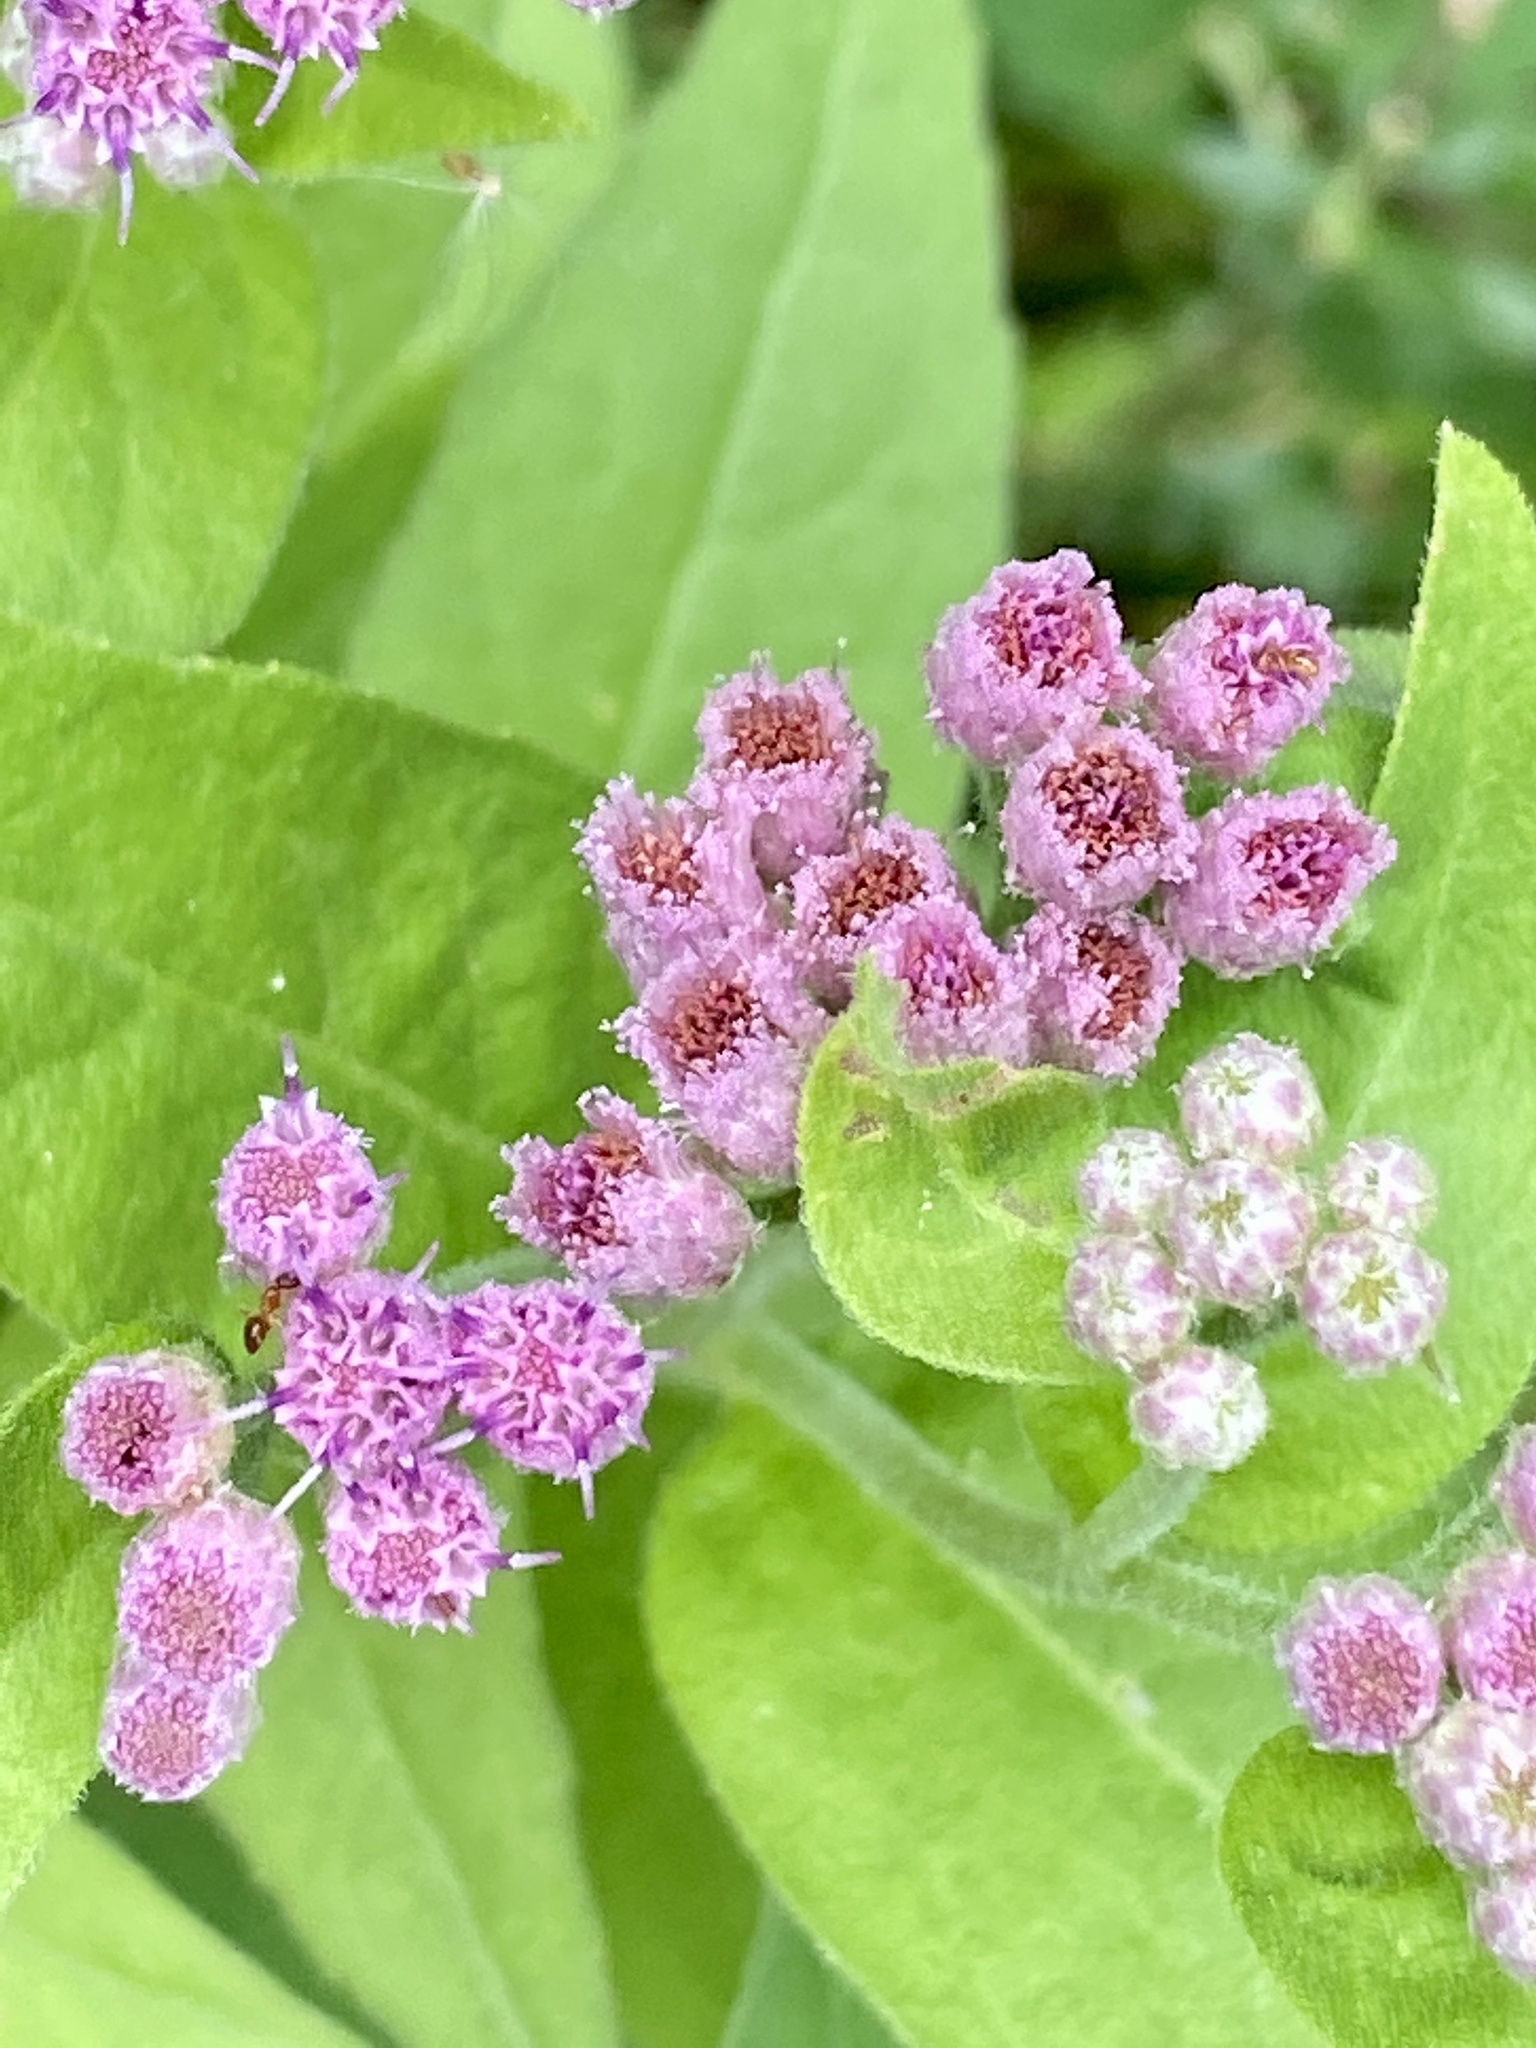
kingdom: Plantae
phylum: Tracheophyta
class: Magnoliopsida
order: Asterales
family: Asteraceae
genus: Pluchea
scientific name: Pluchea odorata
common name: Saltmarsh fleabane
